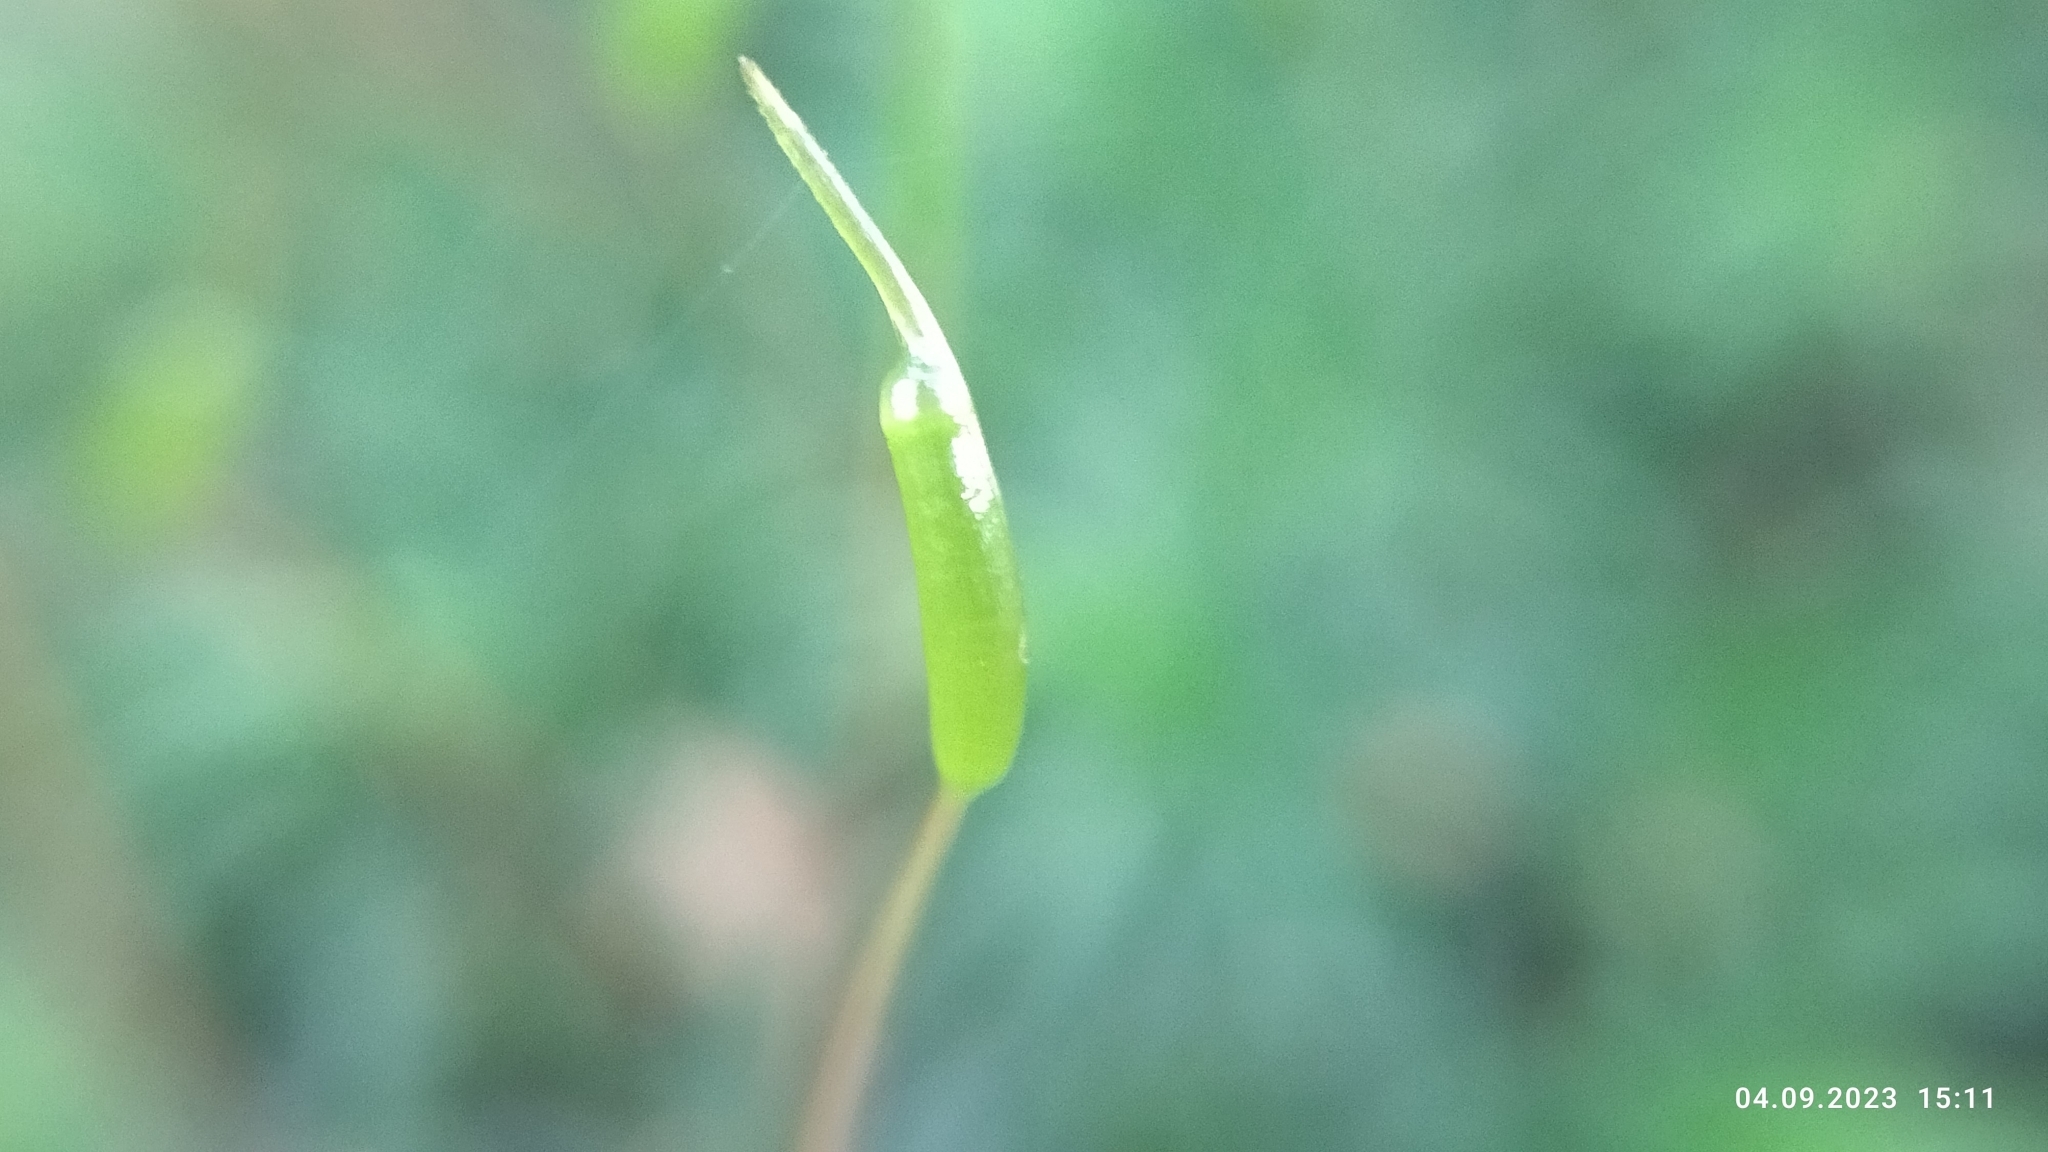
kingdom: Plantae
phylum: Bryophyta
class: Polytrichopsida
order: Polytrichales
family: Polytrichaceae
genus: Atrichum
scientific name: Atrichum undulatum
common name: Common smoothcap
